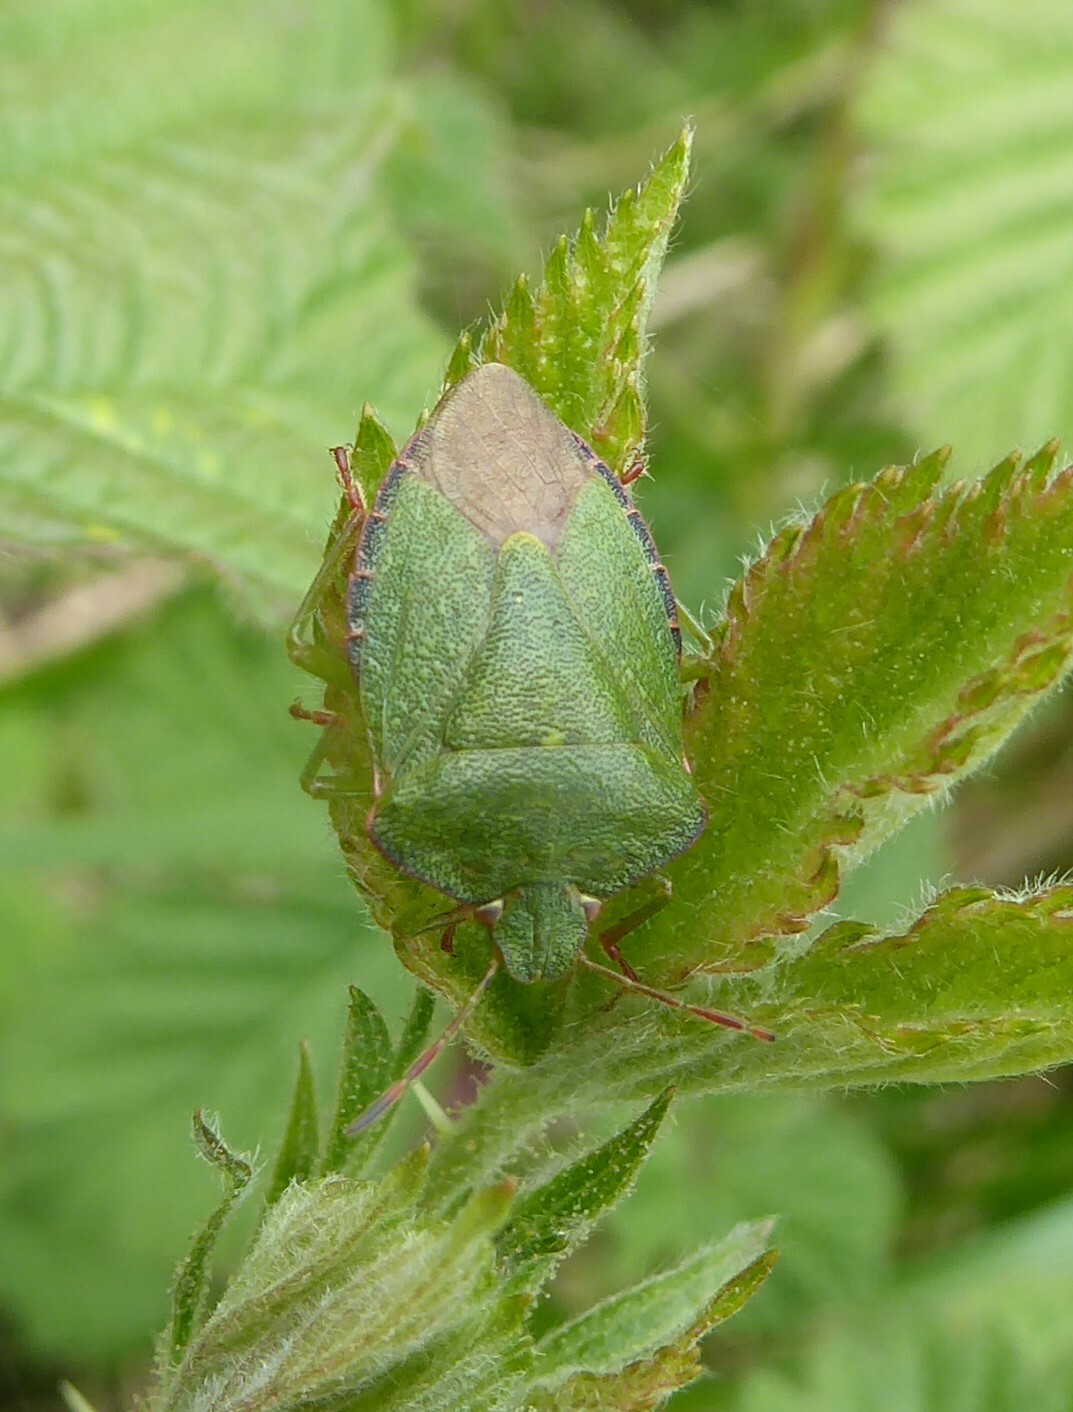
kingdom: Animalia
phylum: Arthropoda
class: Insecta
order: Hemiptera
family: Pentatomidae
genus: Palomena
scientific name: Palomena prasina
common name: Green shieldbug
